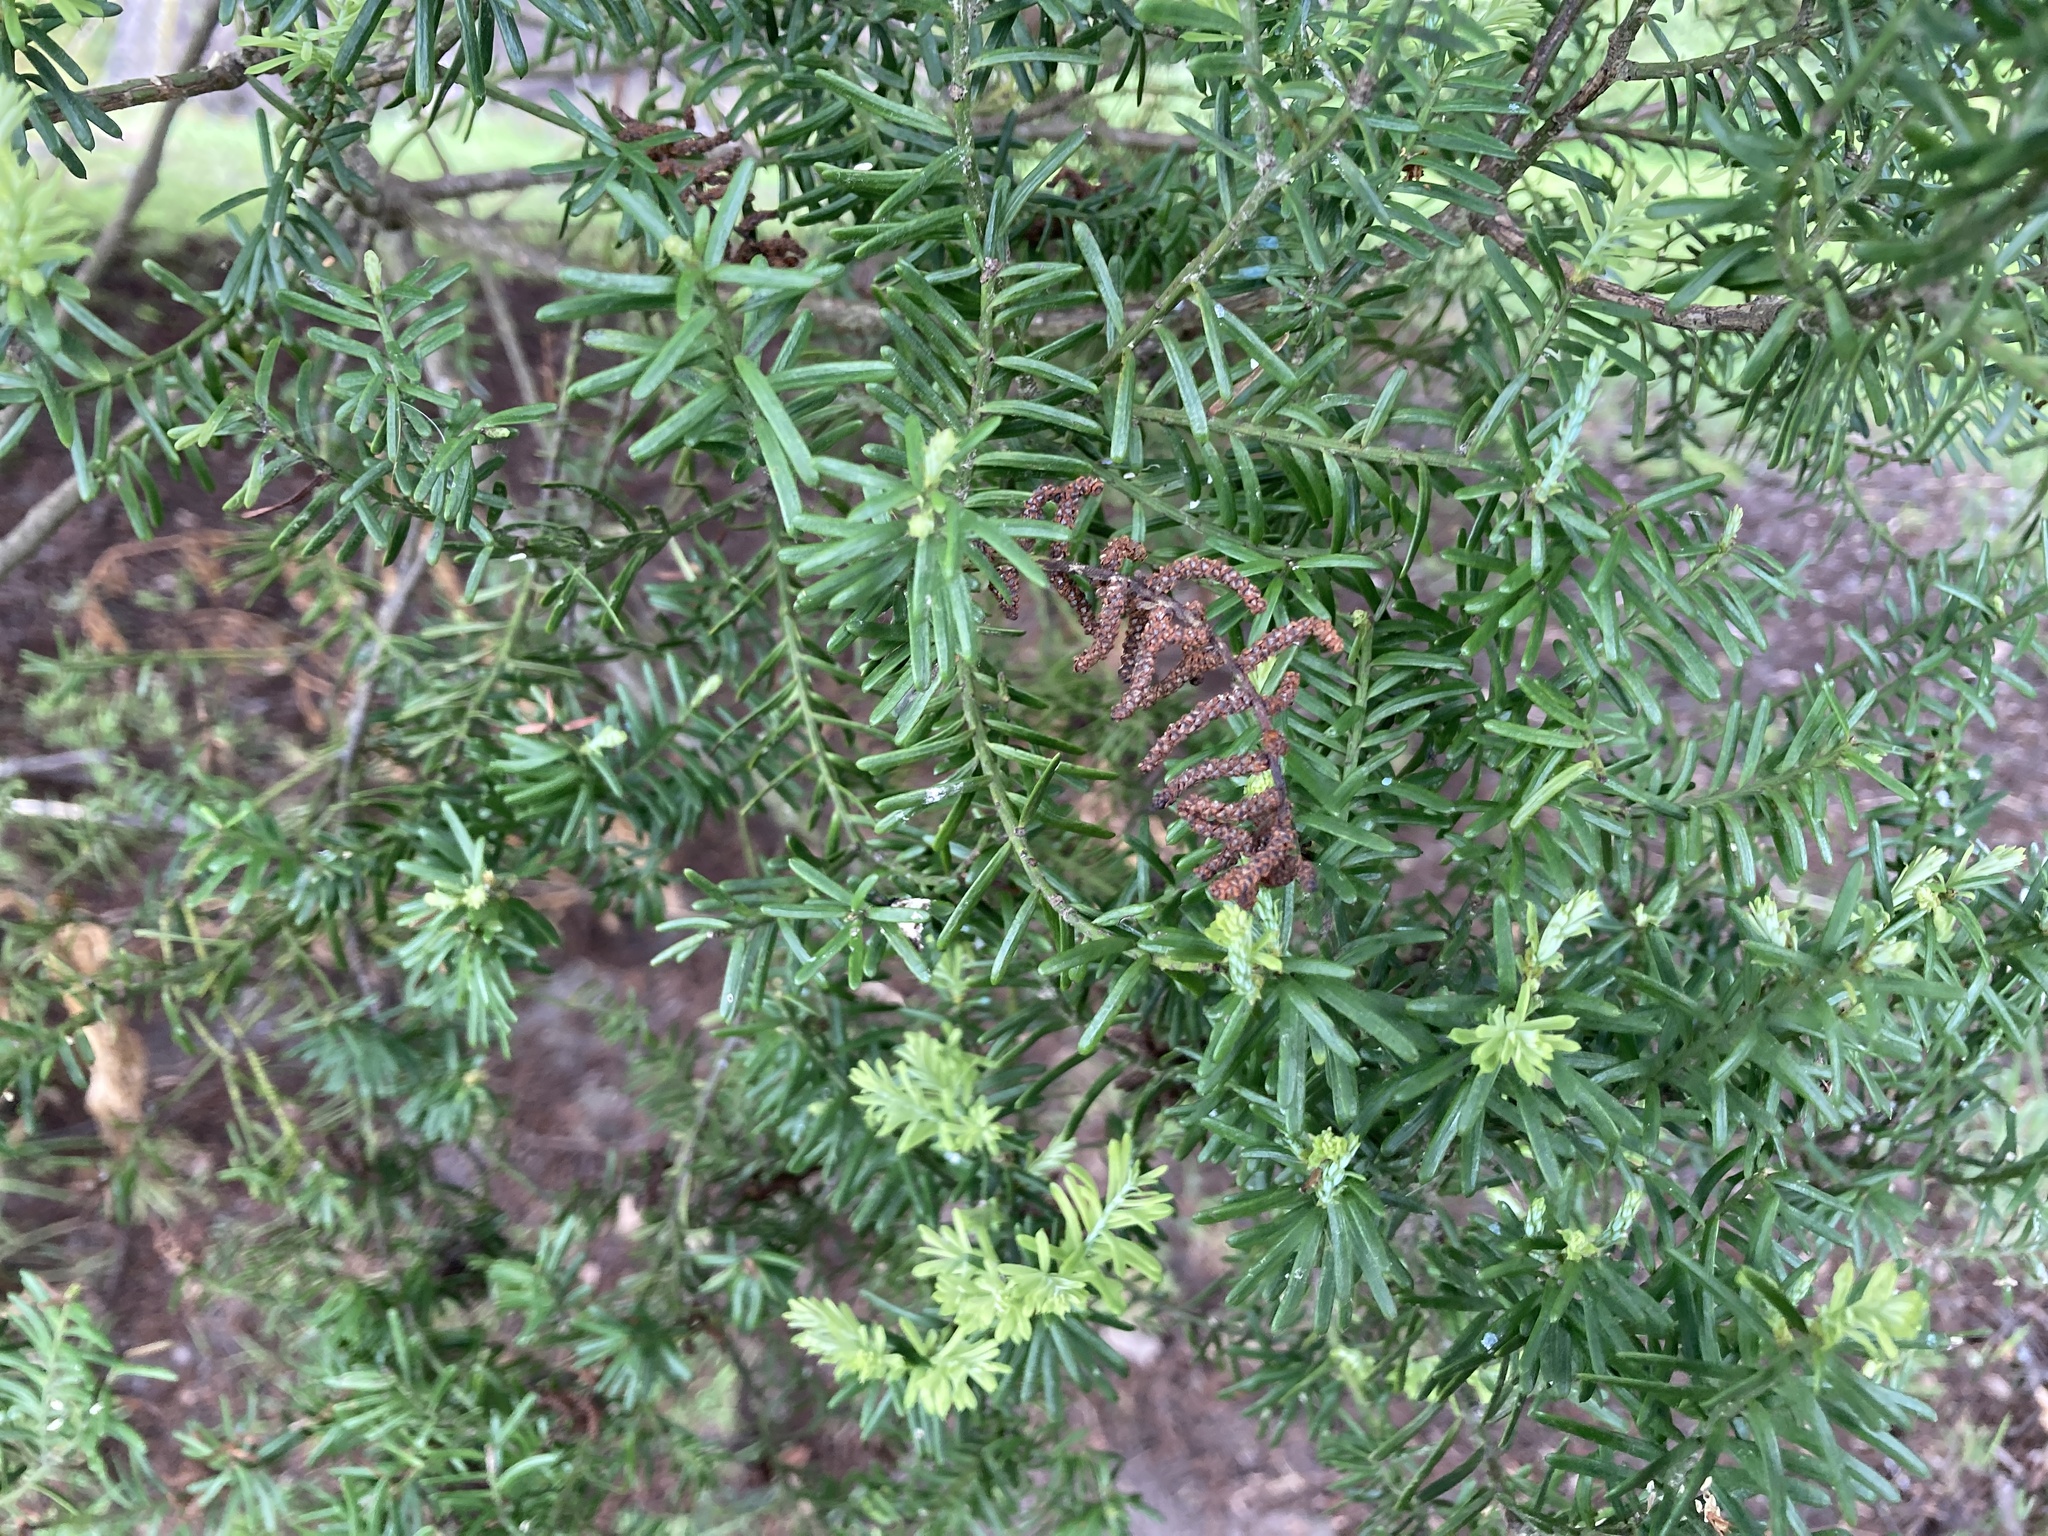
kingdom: Plantae
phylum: Tracheophyta
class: Pinopsida
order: Pinales
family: Podocarpaceae
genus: Prumnopitys
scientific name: Prumnopitys taxifolia
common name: Matai
